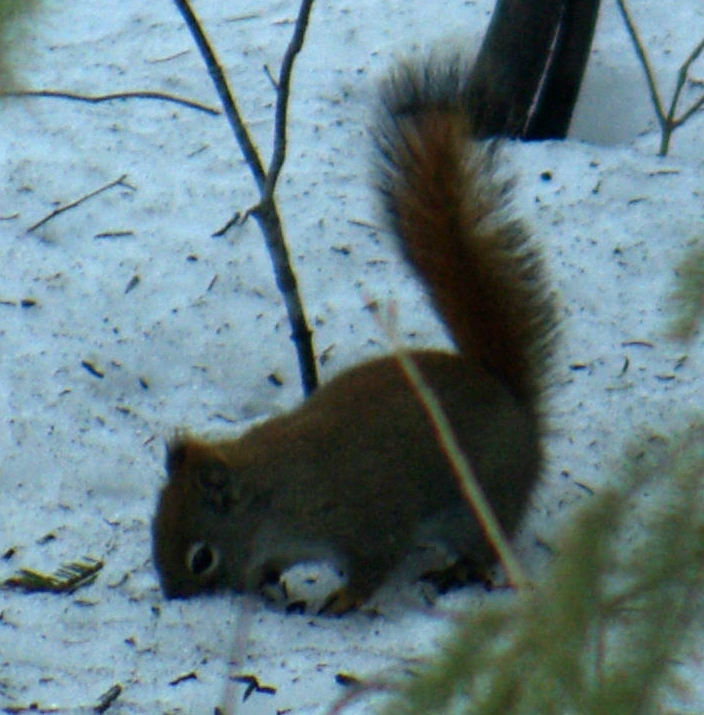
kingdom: Animalia
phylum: Chordata
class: Mammalia
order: Rodentia
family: Sciuridae
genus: Tamiasciurus
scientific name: Tamiasciurus hudsonicus
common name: Red squirrel
